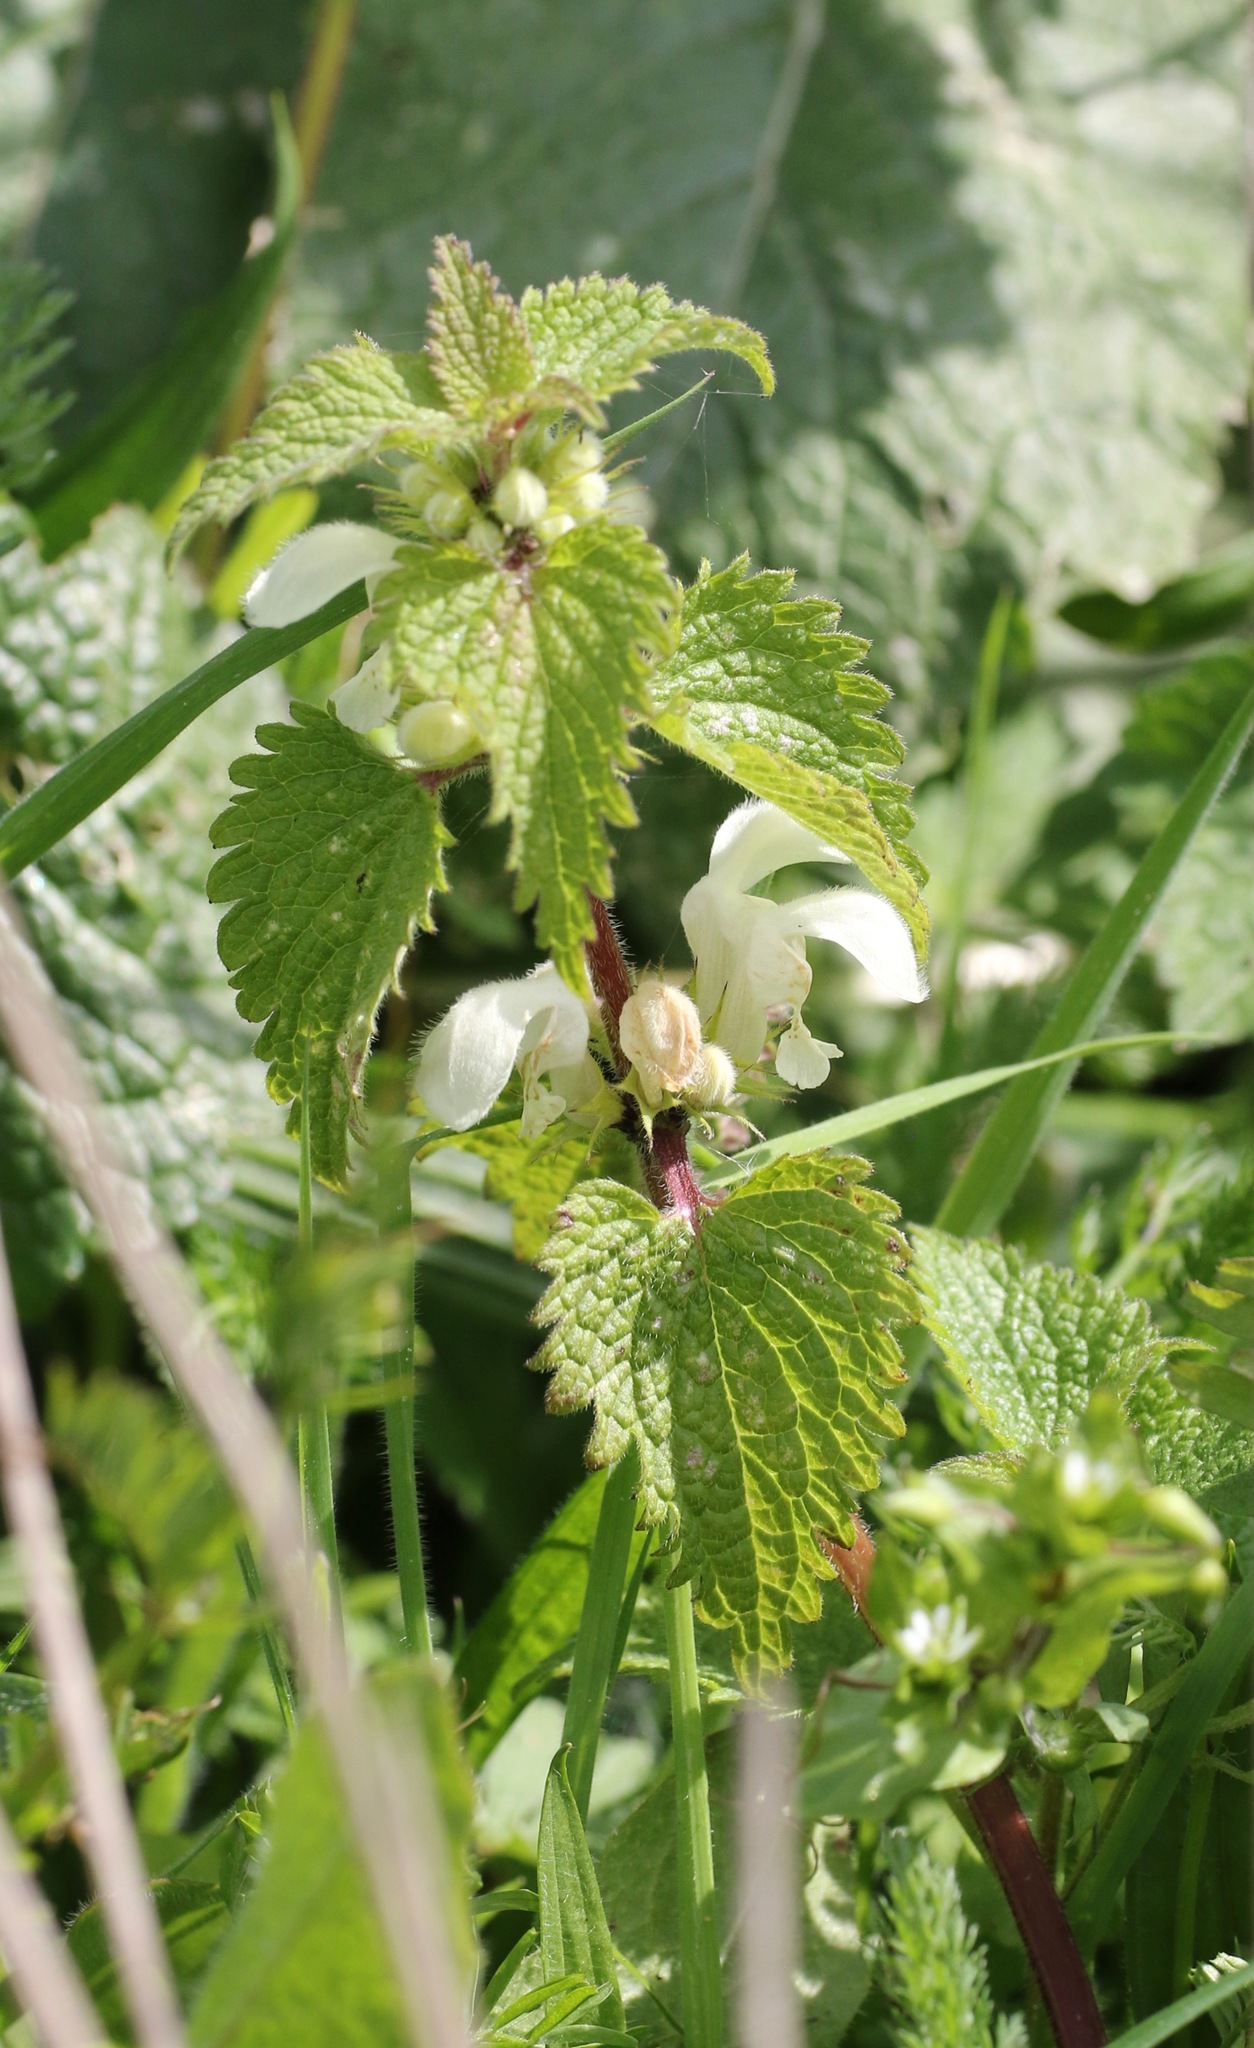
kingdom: Plantae
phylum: Tracheophyta
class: Magnoliopsida
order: Lamiales
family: Lamiaceae
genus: Lamium
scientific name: Lamium album
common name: White dead-nettle
